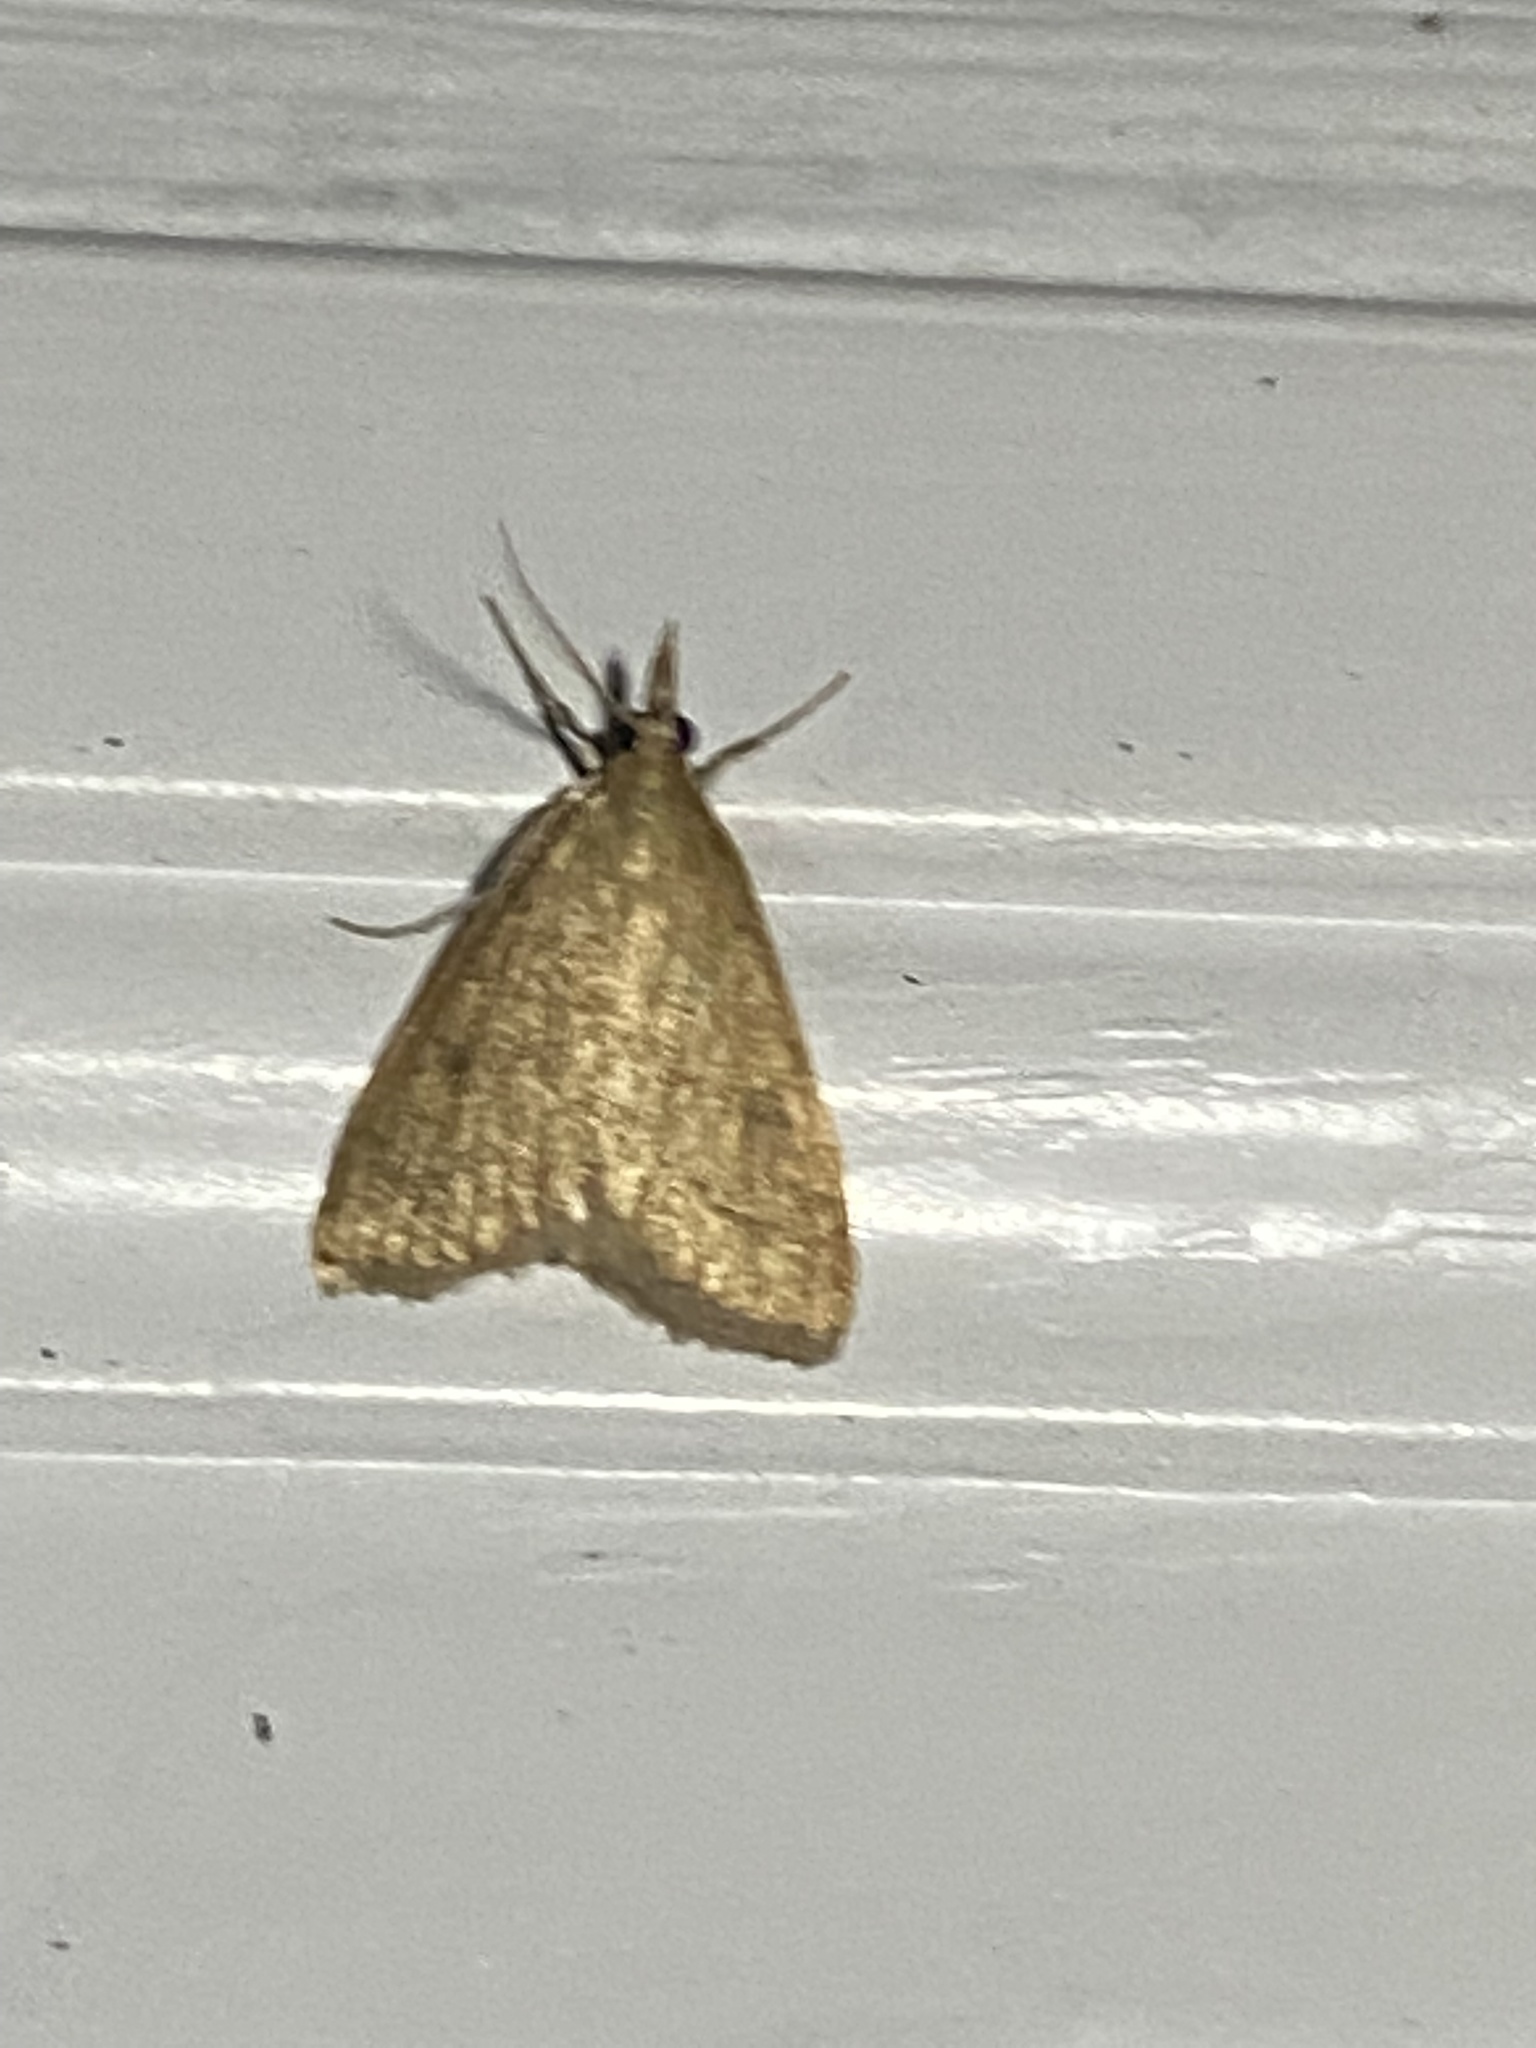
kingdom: Animalia
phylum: Arthropoda
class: Insecta
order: Lepidoptera
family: Crambidae
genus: Udea
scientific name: Udea rubigalis
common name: Celery leaftier moth
